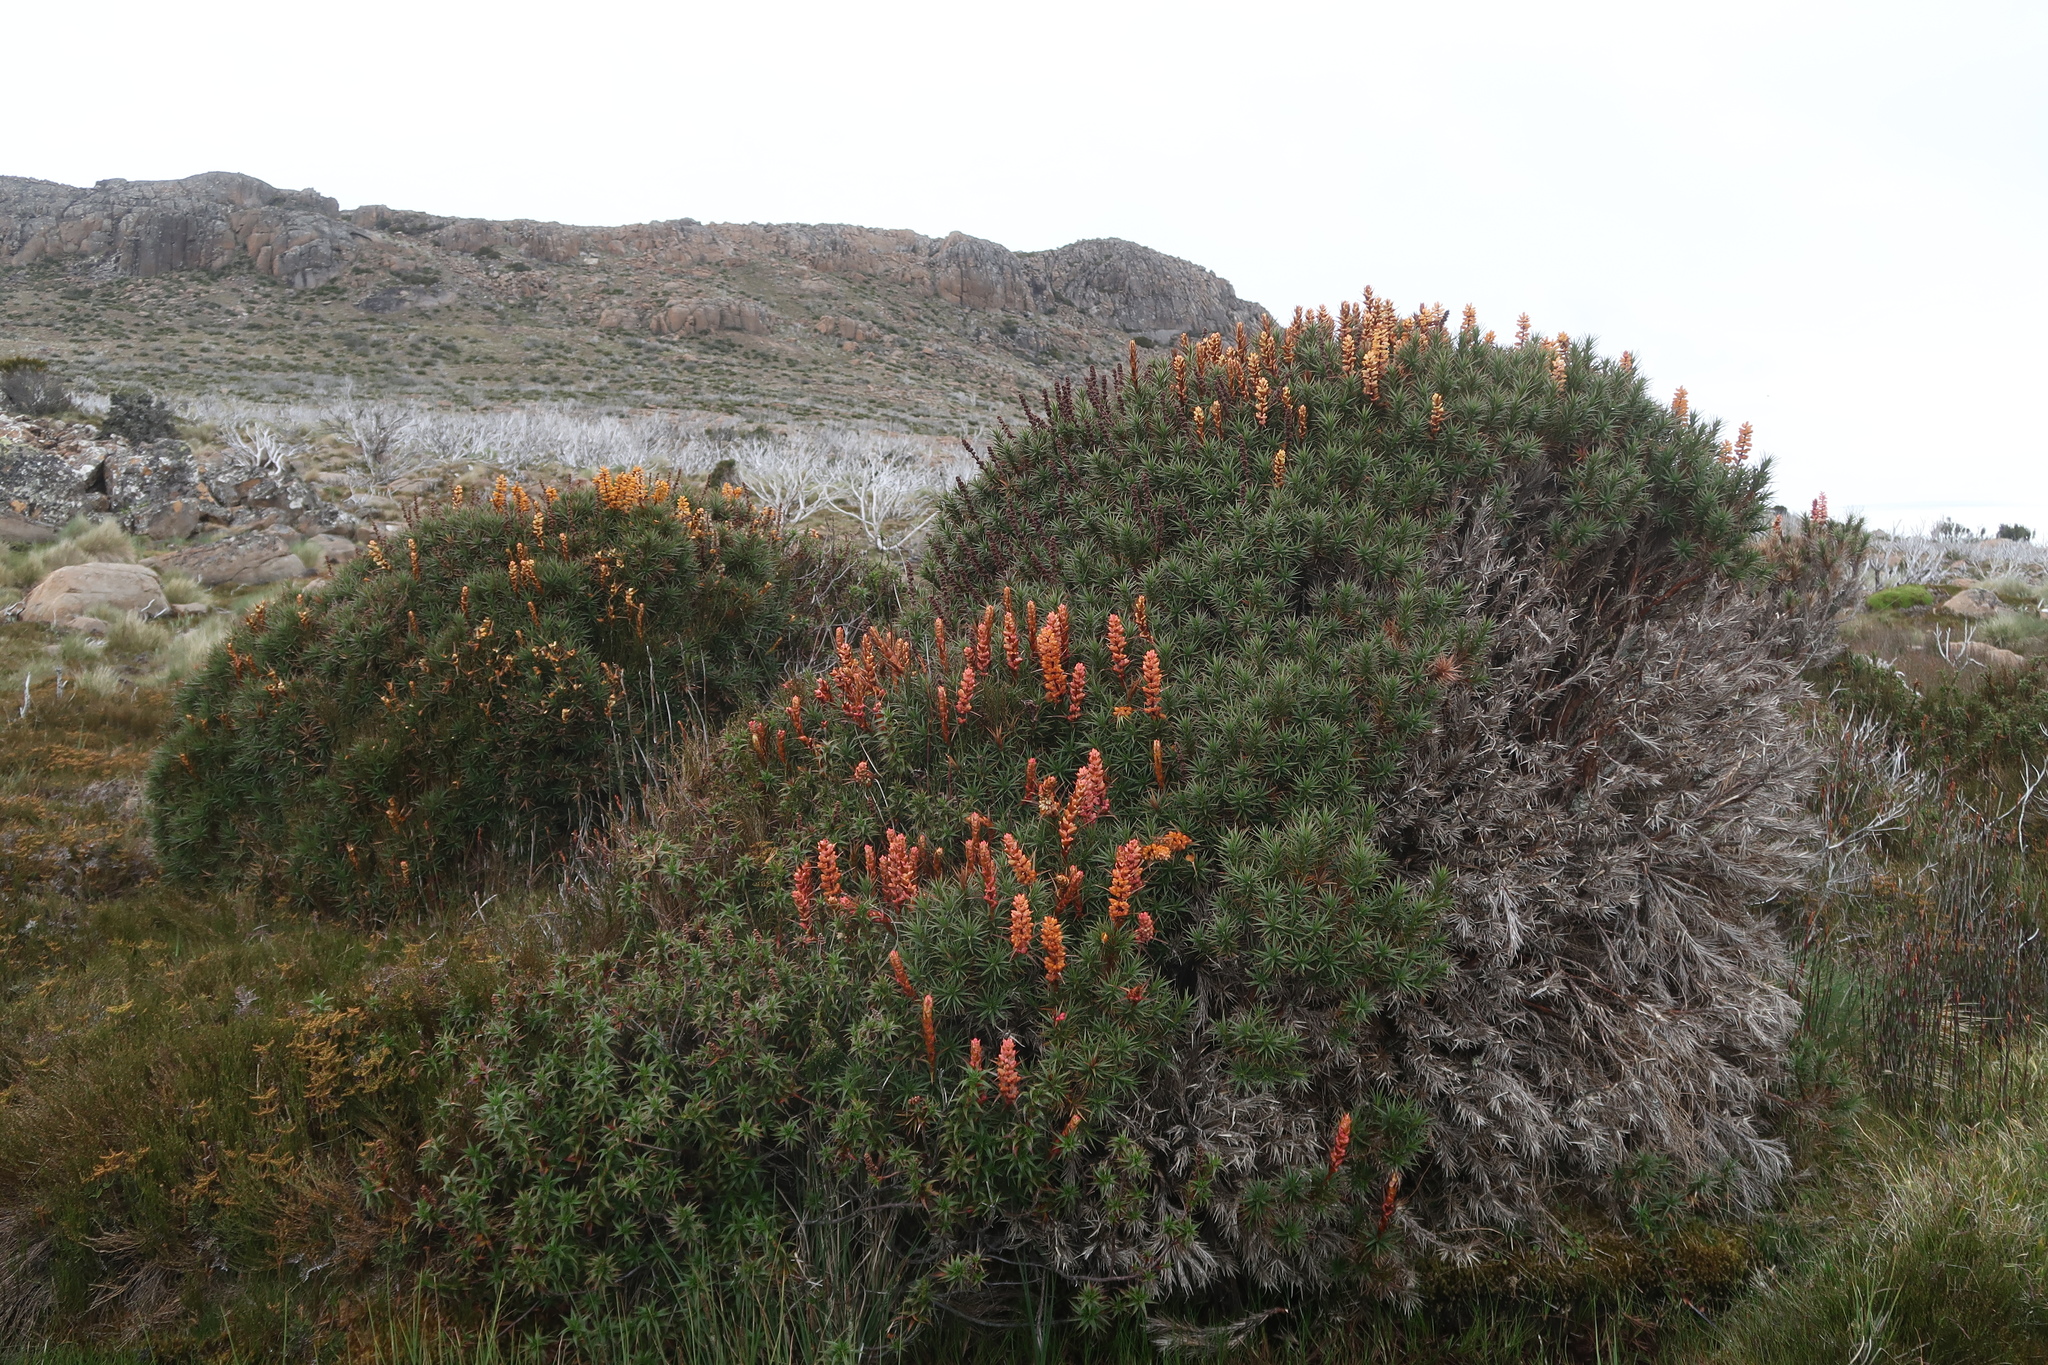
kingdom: Plantae
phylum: Tracheophyta
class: Magnoliopsida
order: Ericales
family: Ericaceae
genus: Dracophyllum
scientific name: Dracophyllum persistentifolium
